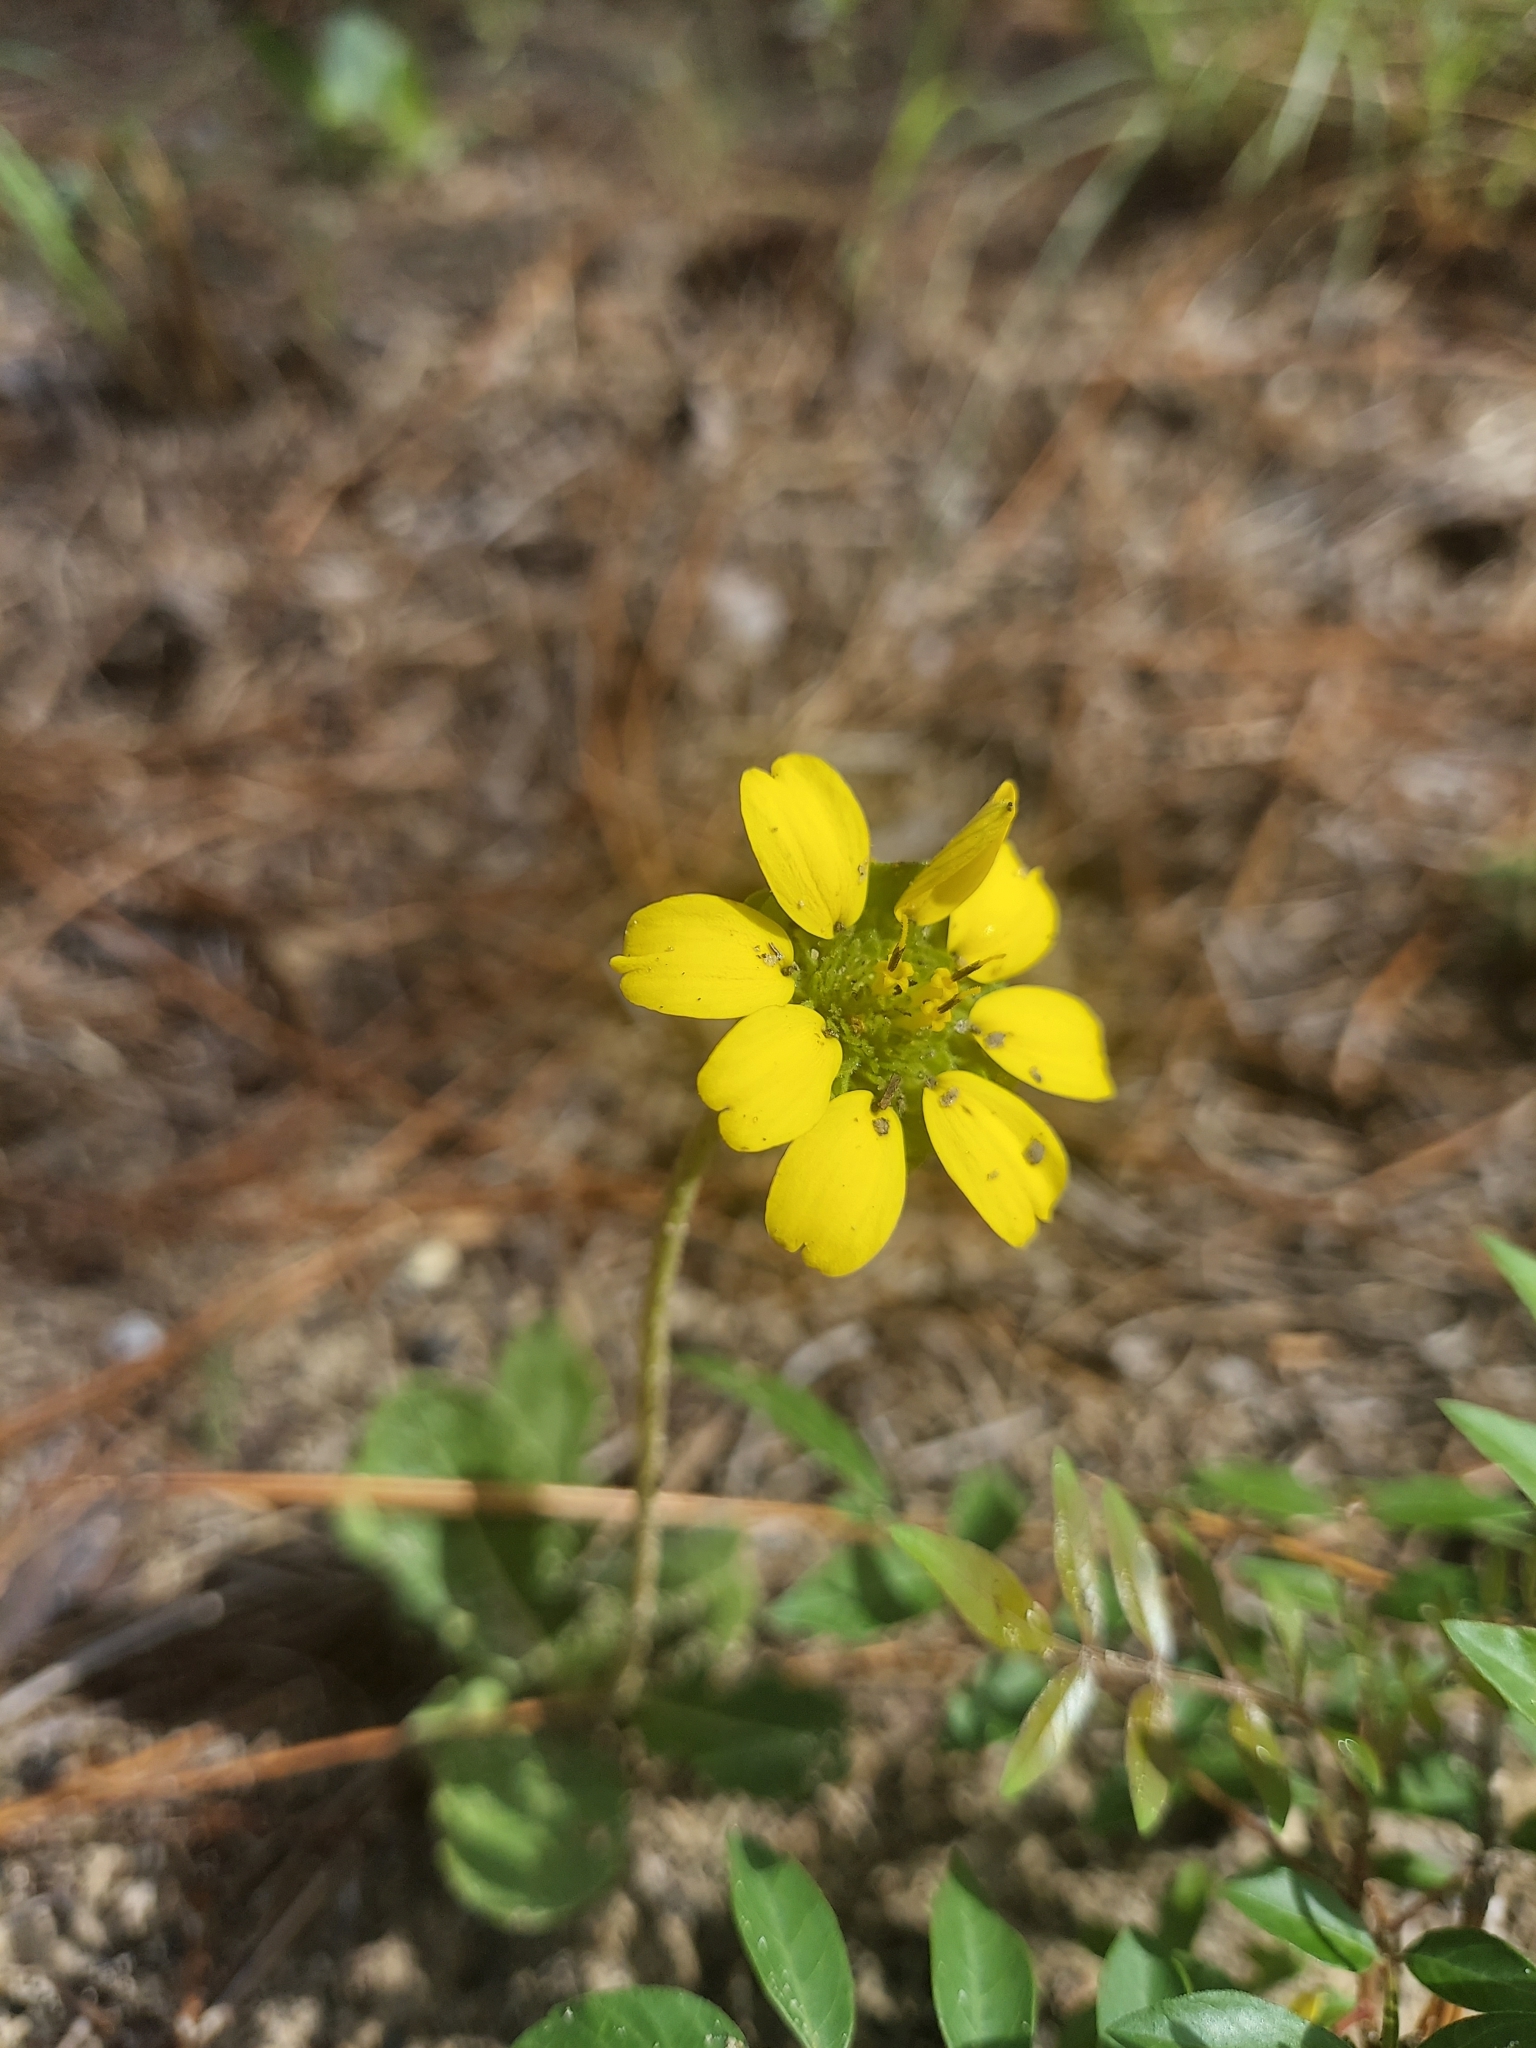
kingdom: Plantae
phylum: Tracheophyta
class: Magnoliopsida
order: Asterales
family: Asteraceae
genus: Berlandiera
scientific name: Berlandiera subacaulis
